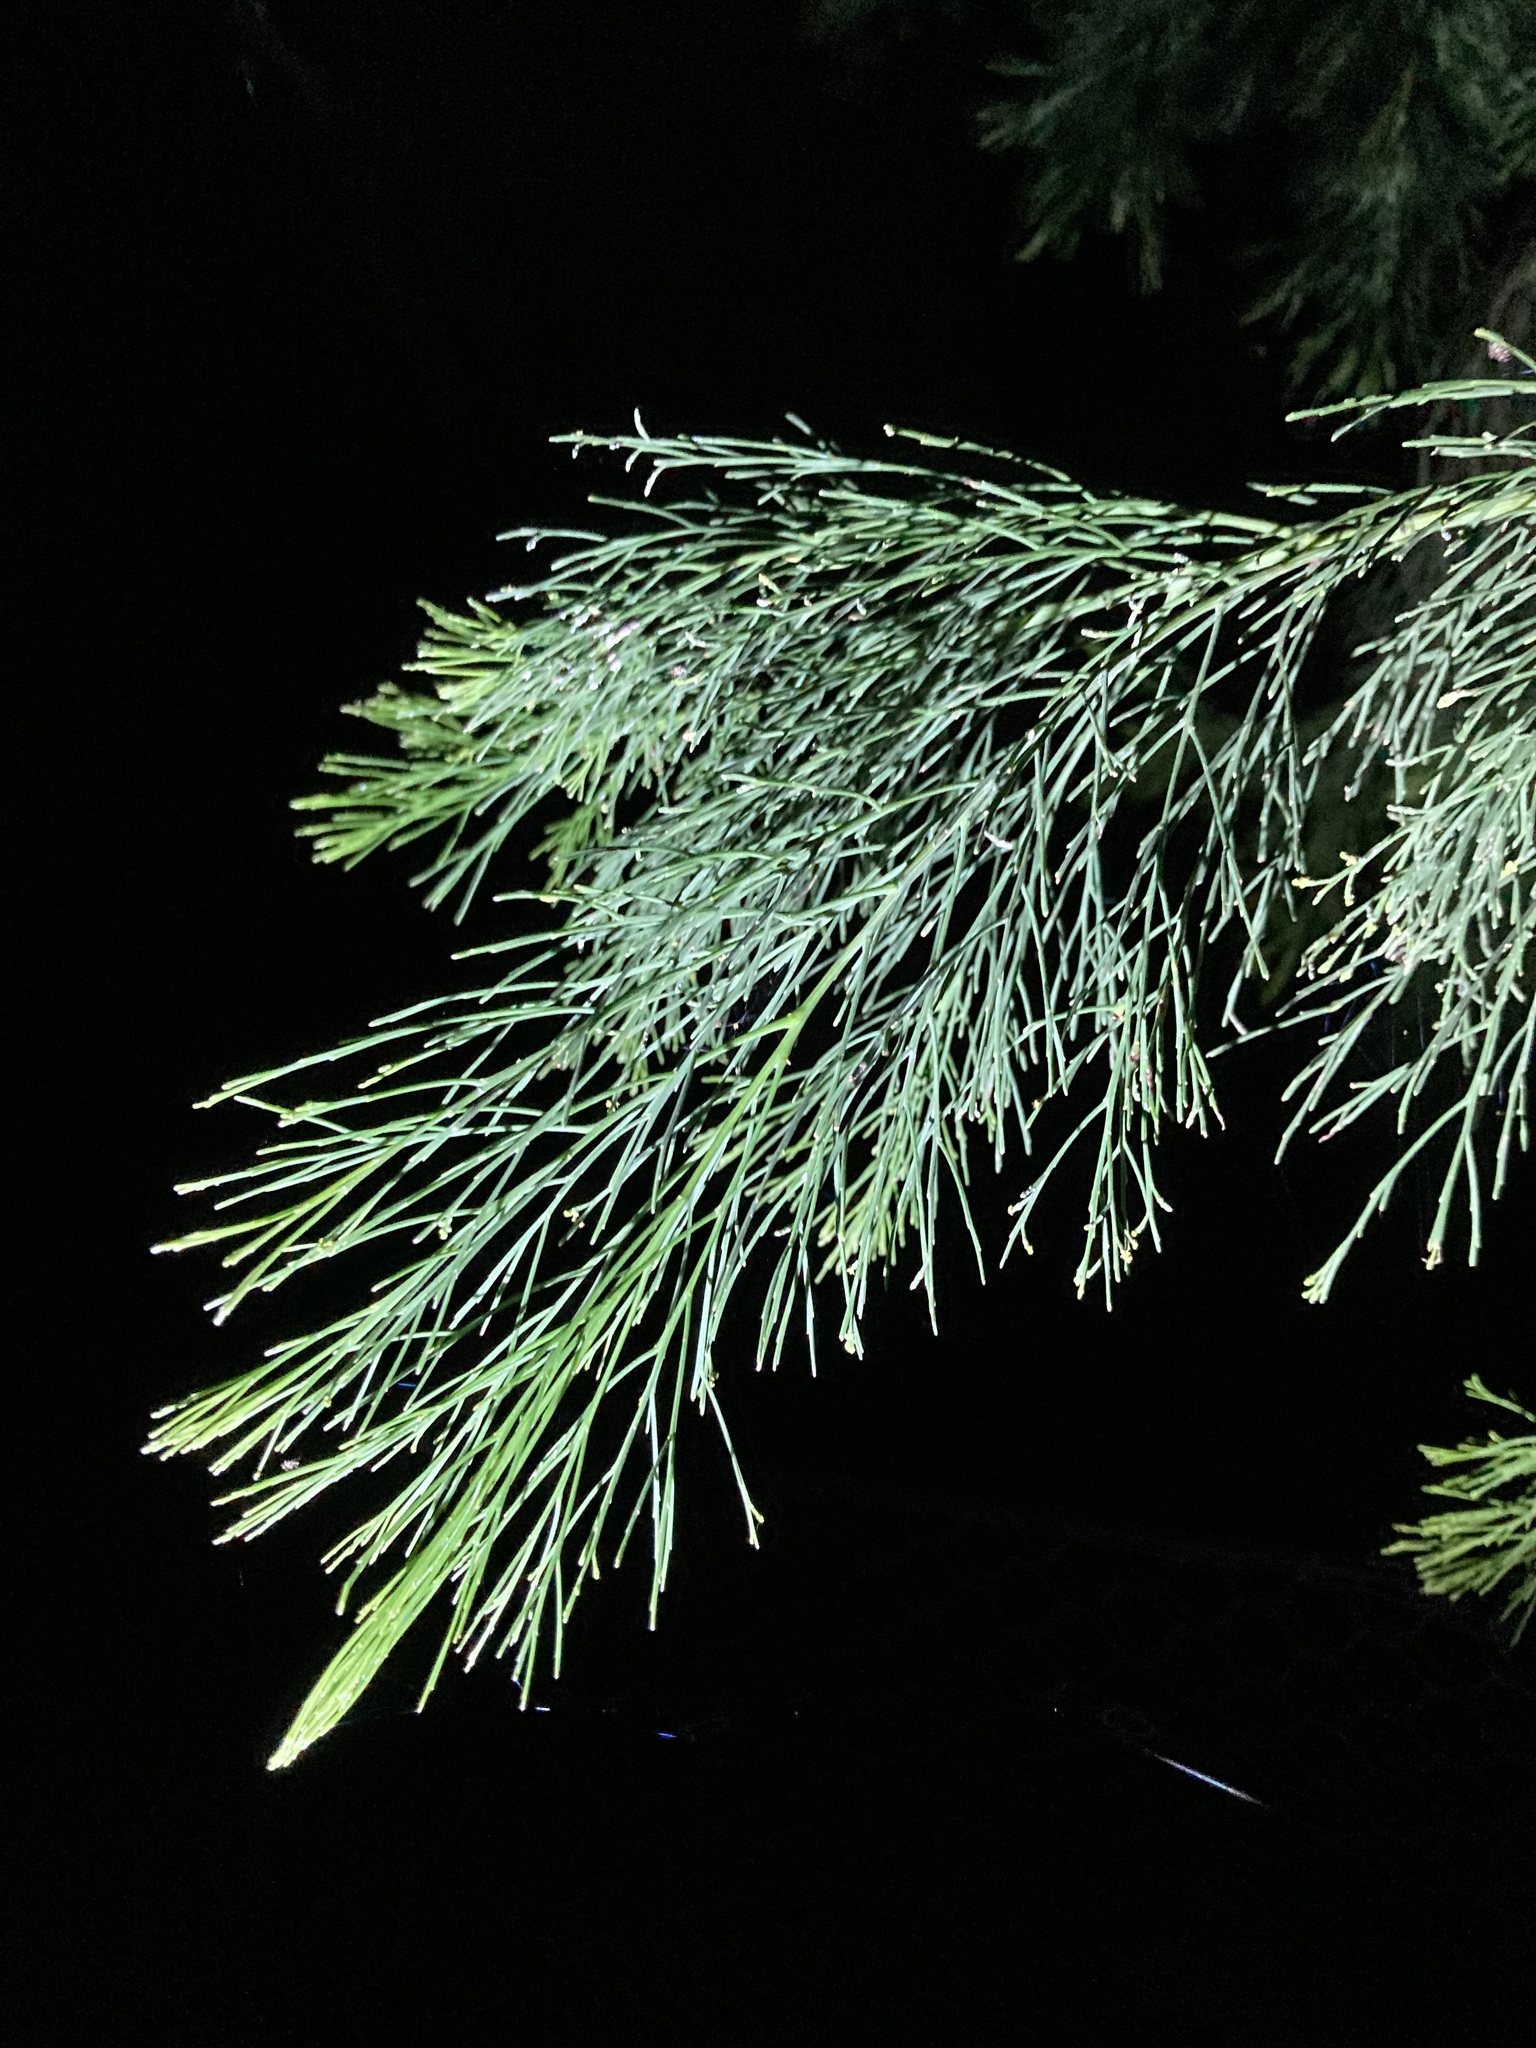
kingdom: Plantae
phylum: Tracheophyta
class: Magnoliopsida
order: Santalales
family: Santalaceae
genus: Exocarpos
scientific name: Exocarpos cupressiformis
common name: Cherry ballart
